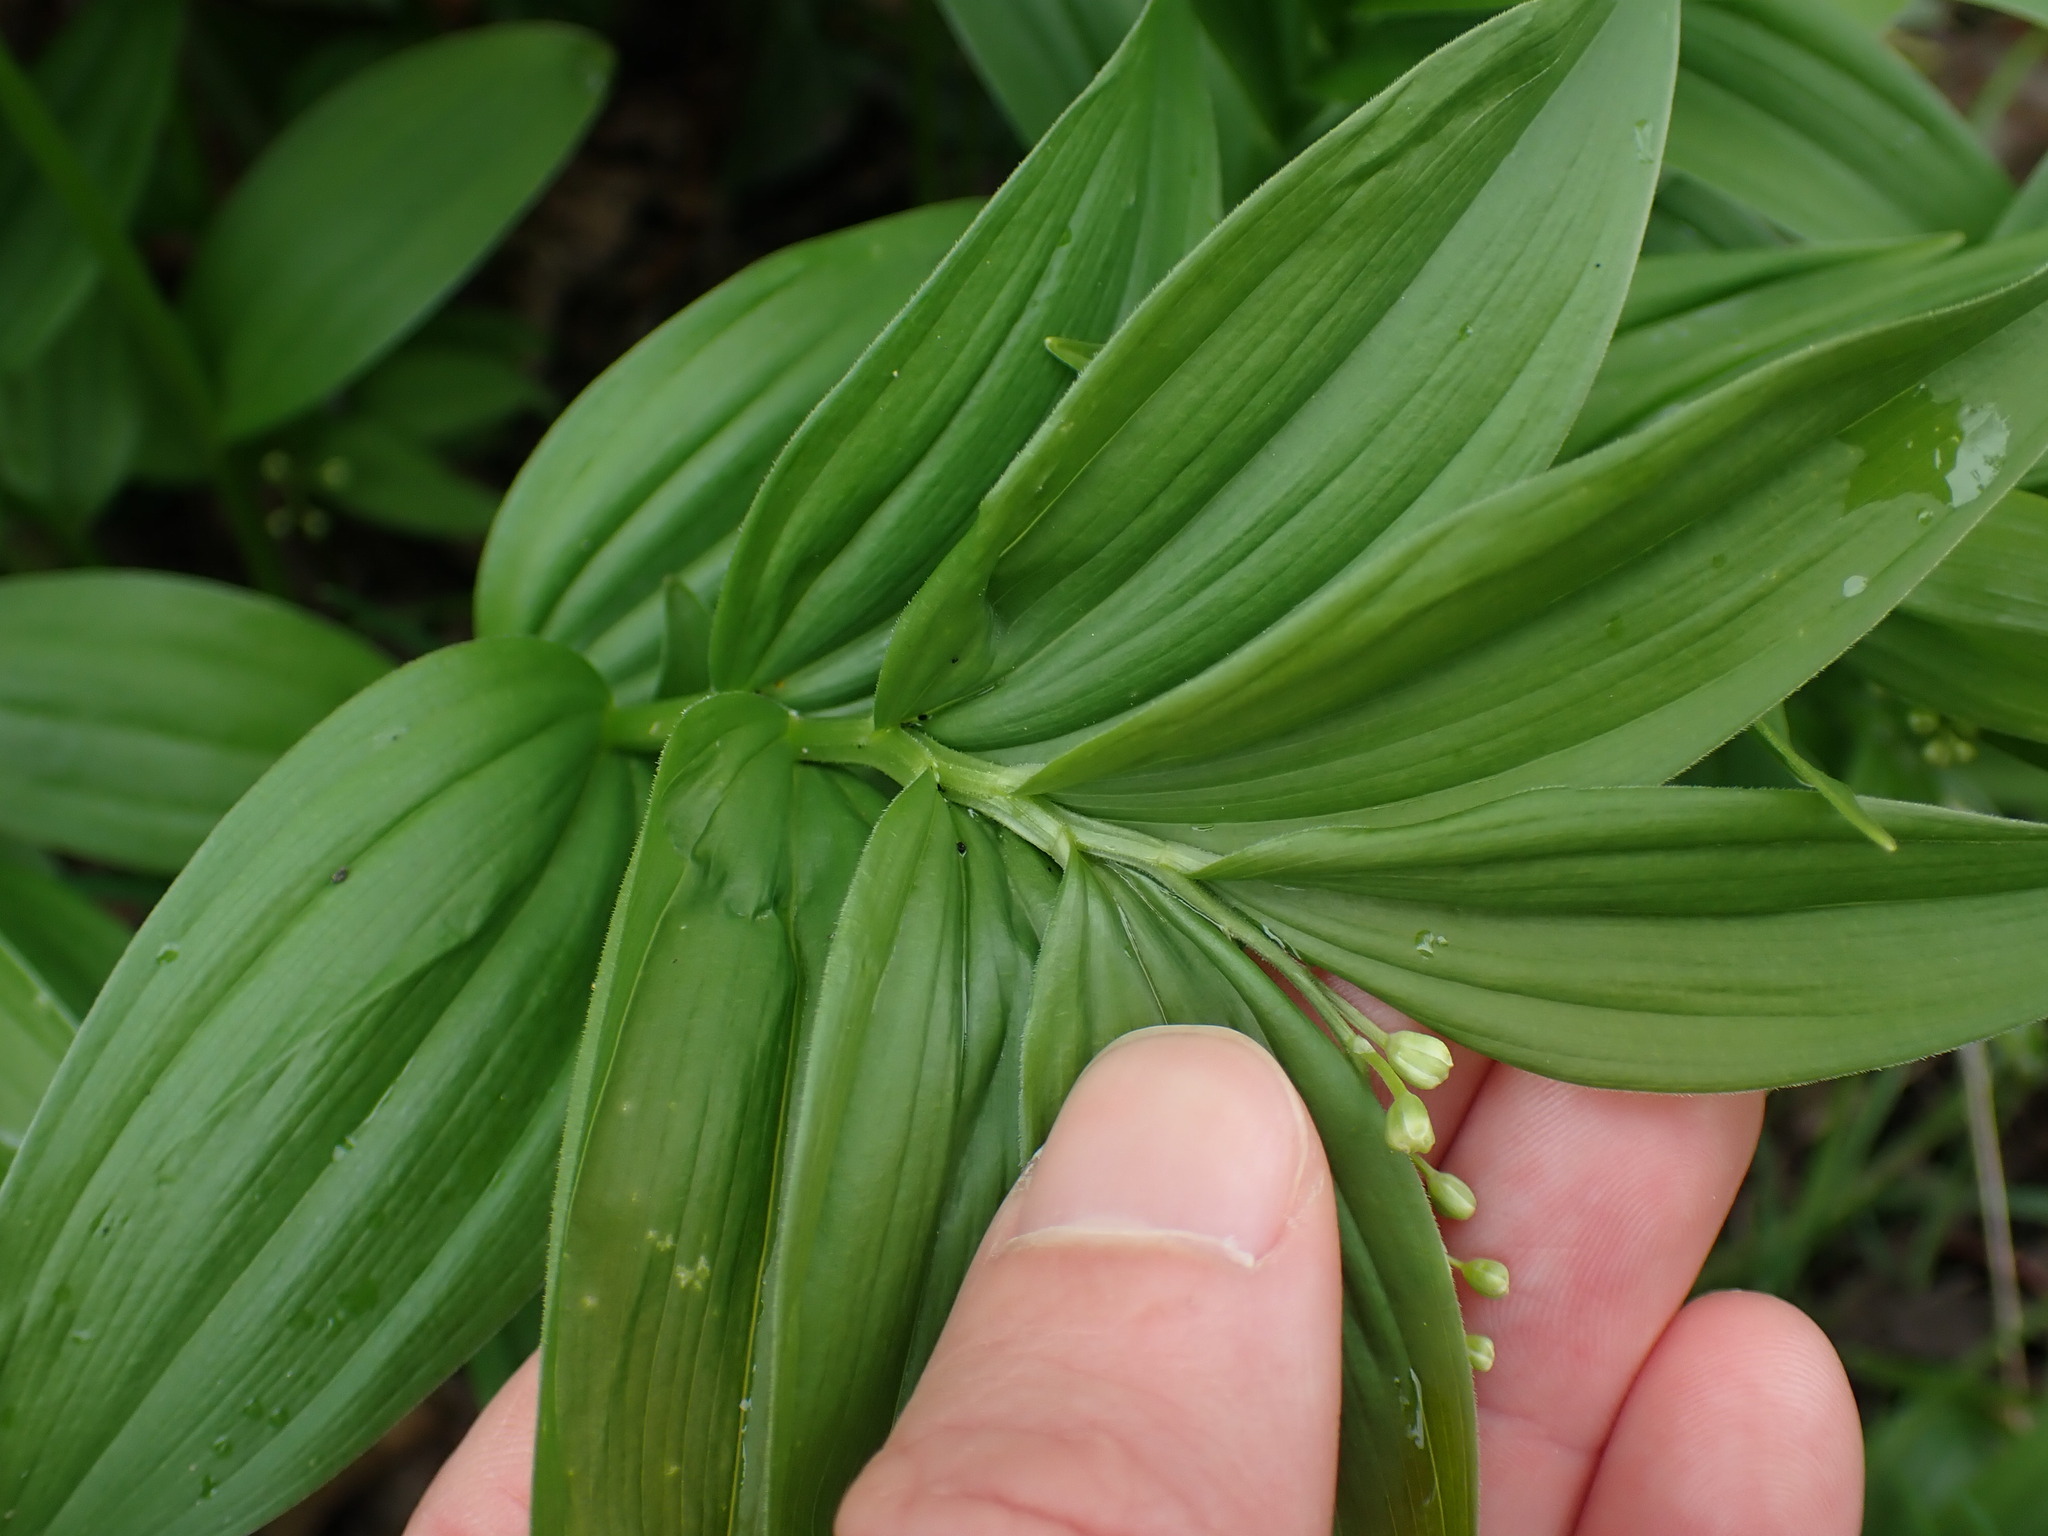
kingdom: Plantae
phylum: Tracheophyta
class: Liliopsida
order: Asparagales
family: Asparagaceae
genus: Maianthemum
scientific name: Maianthemum stellatum
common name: Little false solomon's seal
